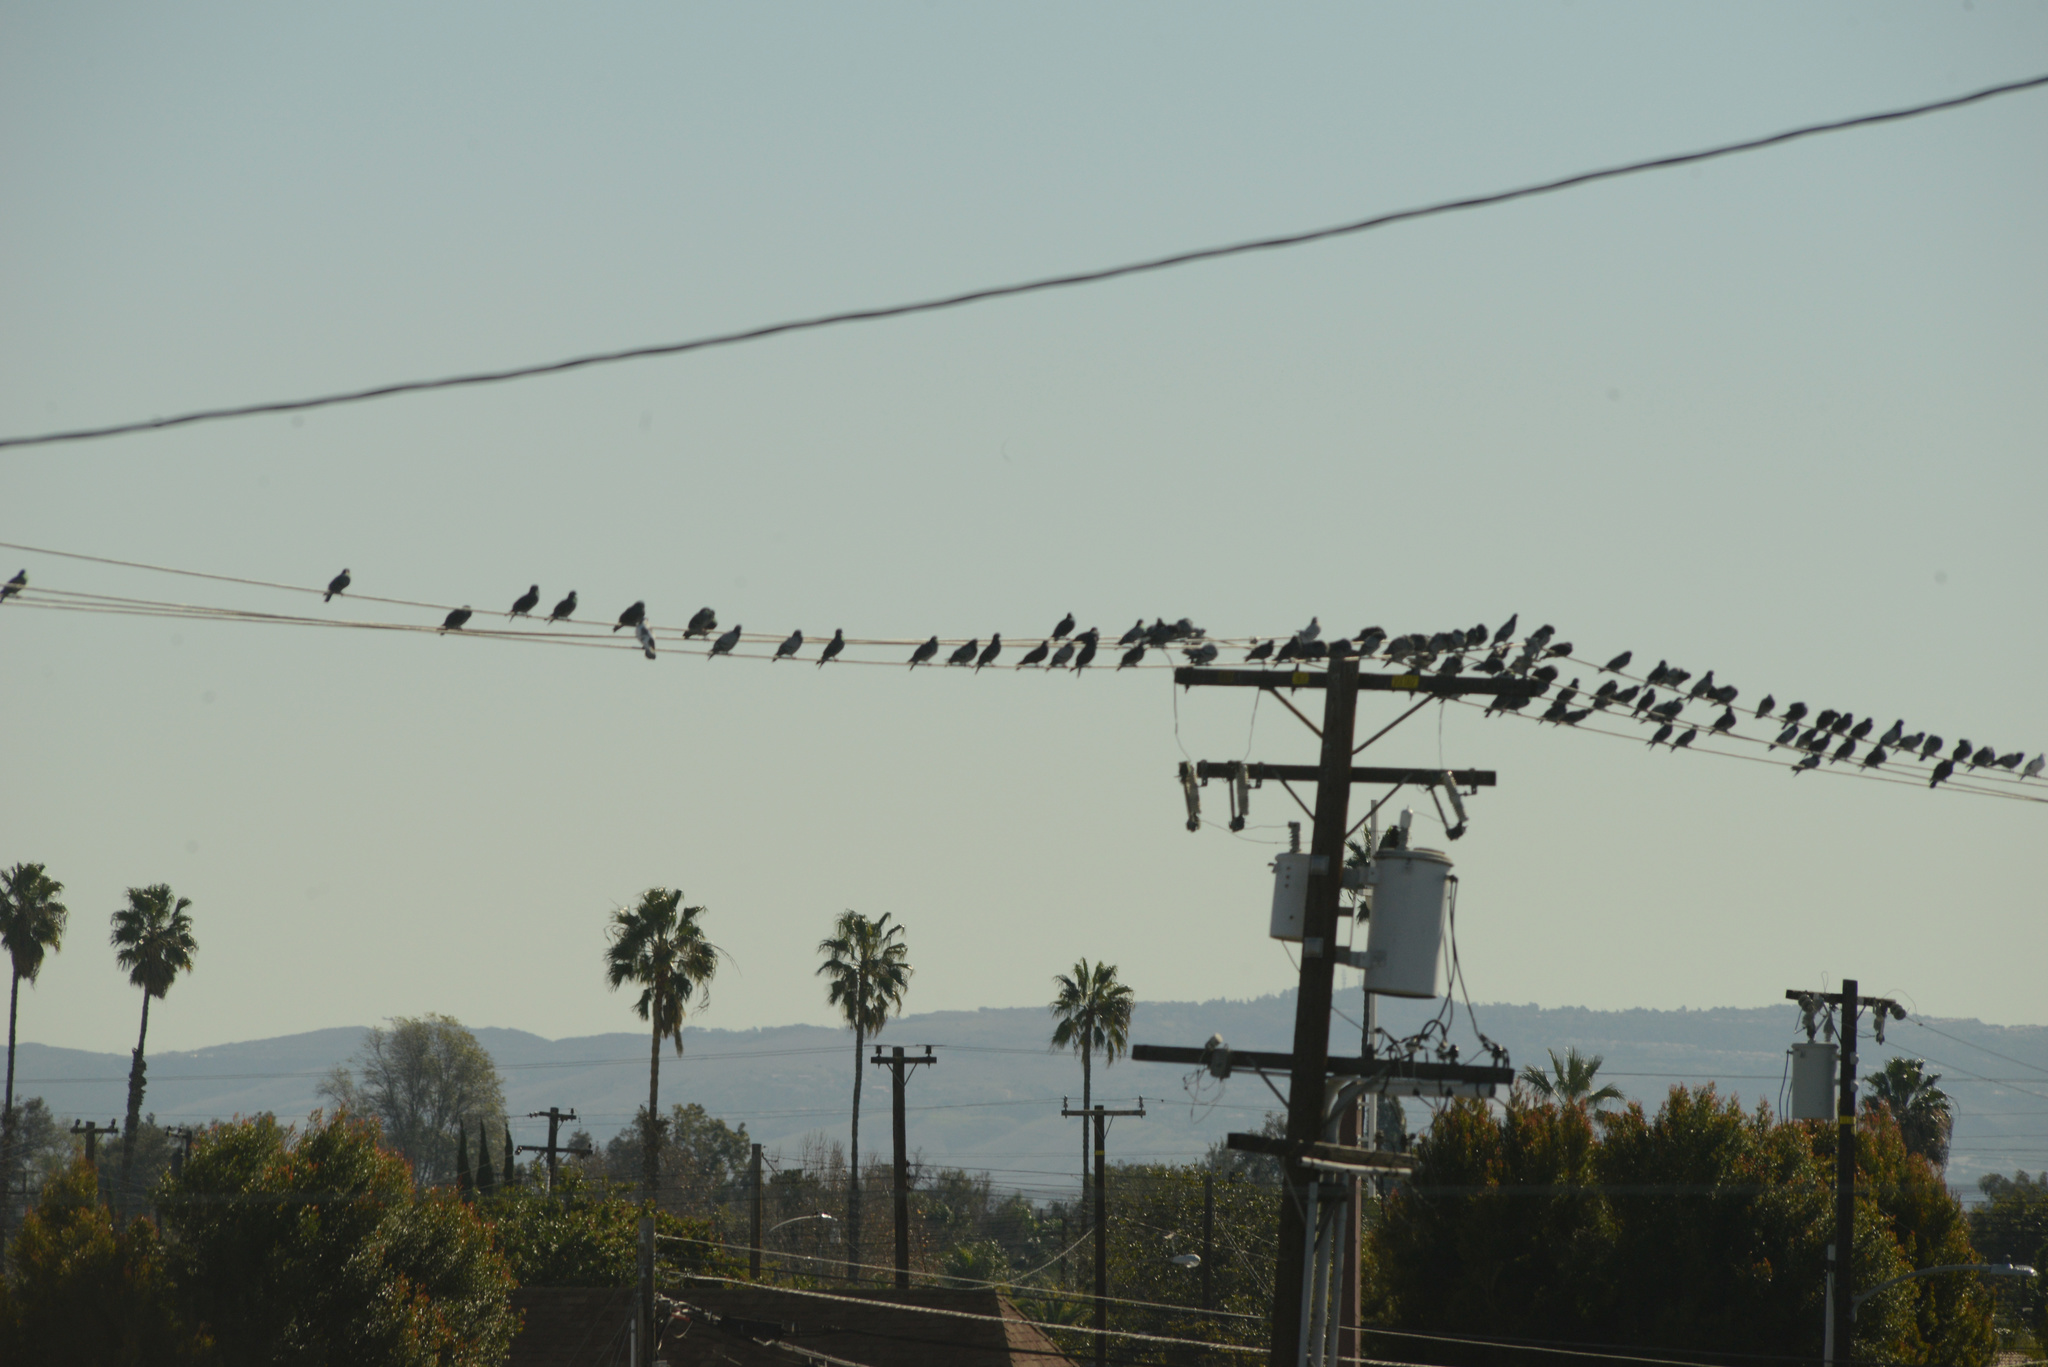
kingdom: Animalia
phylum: Chordata
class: Aves
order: Columbiformes
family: Columbidae
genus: Columba
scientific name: Columba livia
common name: Rock pigeon
